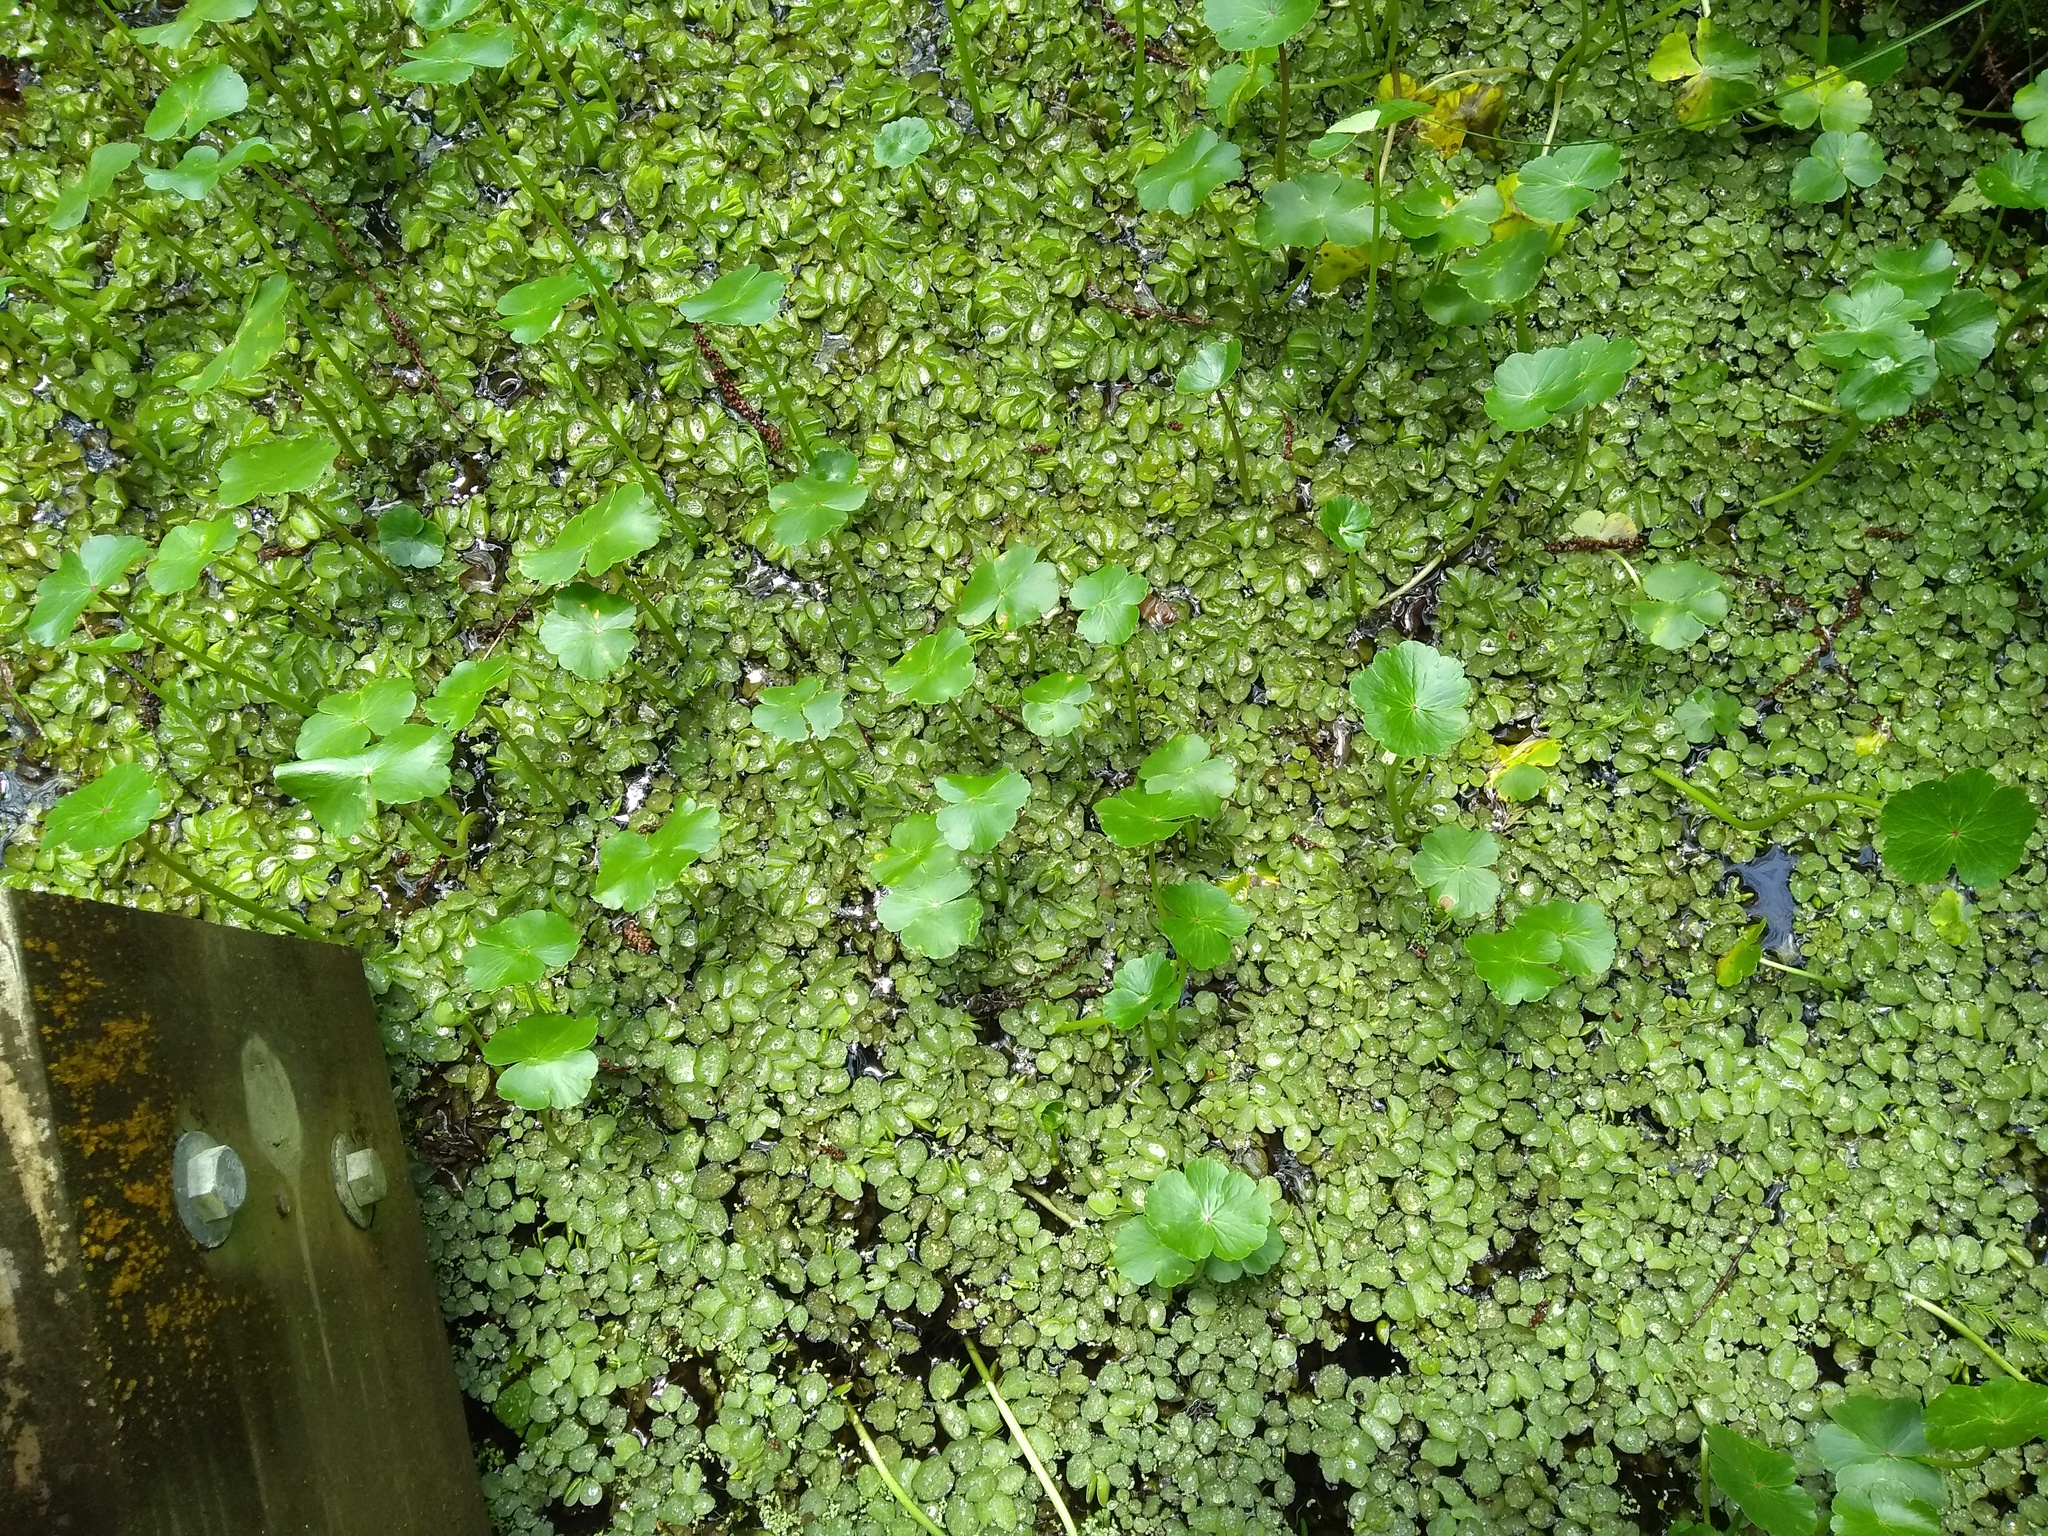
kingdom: Plantae
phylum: Tracheophyta
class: Polypodiopsida
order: Salviniales
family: Salviniaceae
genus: Salvinia
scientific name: Salvinia molesta
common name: Kariba weed
